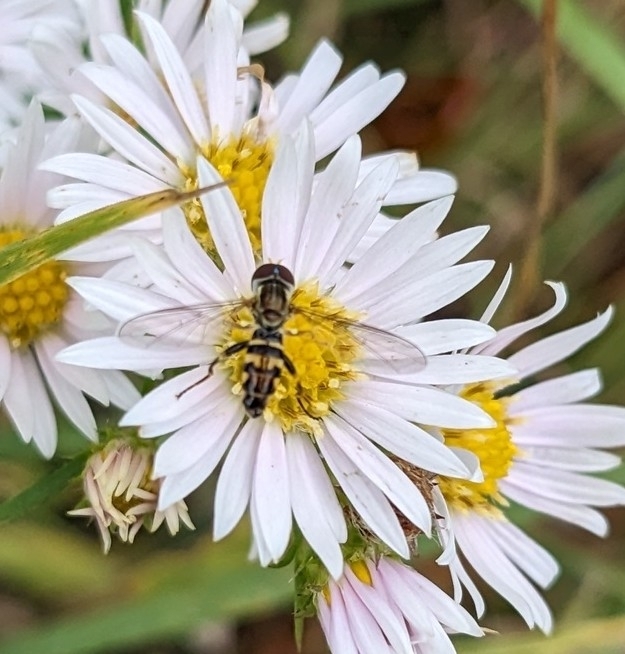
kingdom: Animalia
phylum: Arthropoda
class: Insecta
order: Diptera
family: Syrphidae
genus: Toxomerus
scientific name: Toxomerus geminatus
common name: Eastern calligrapher
